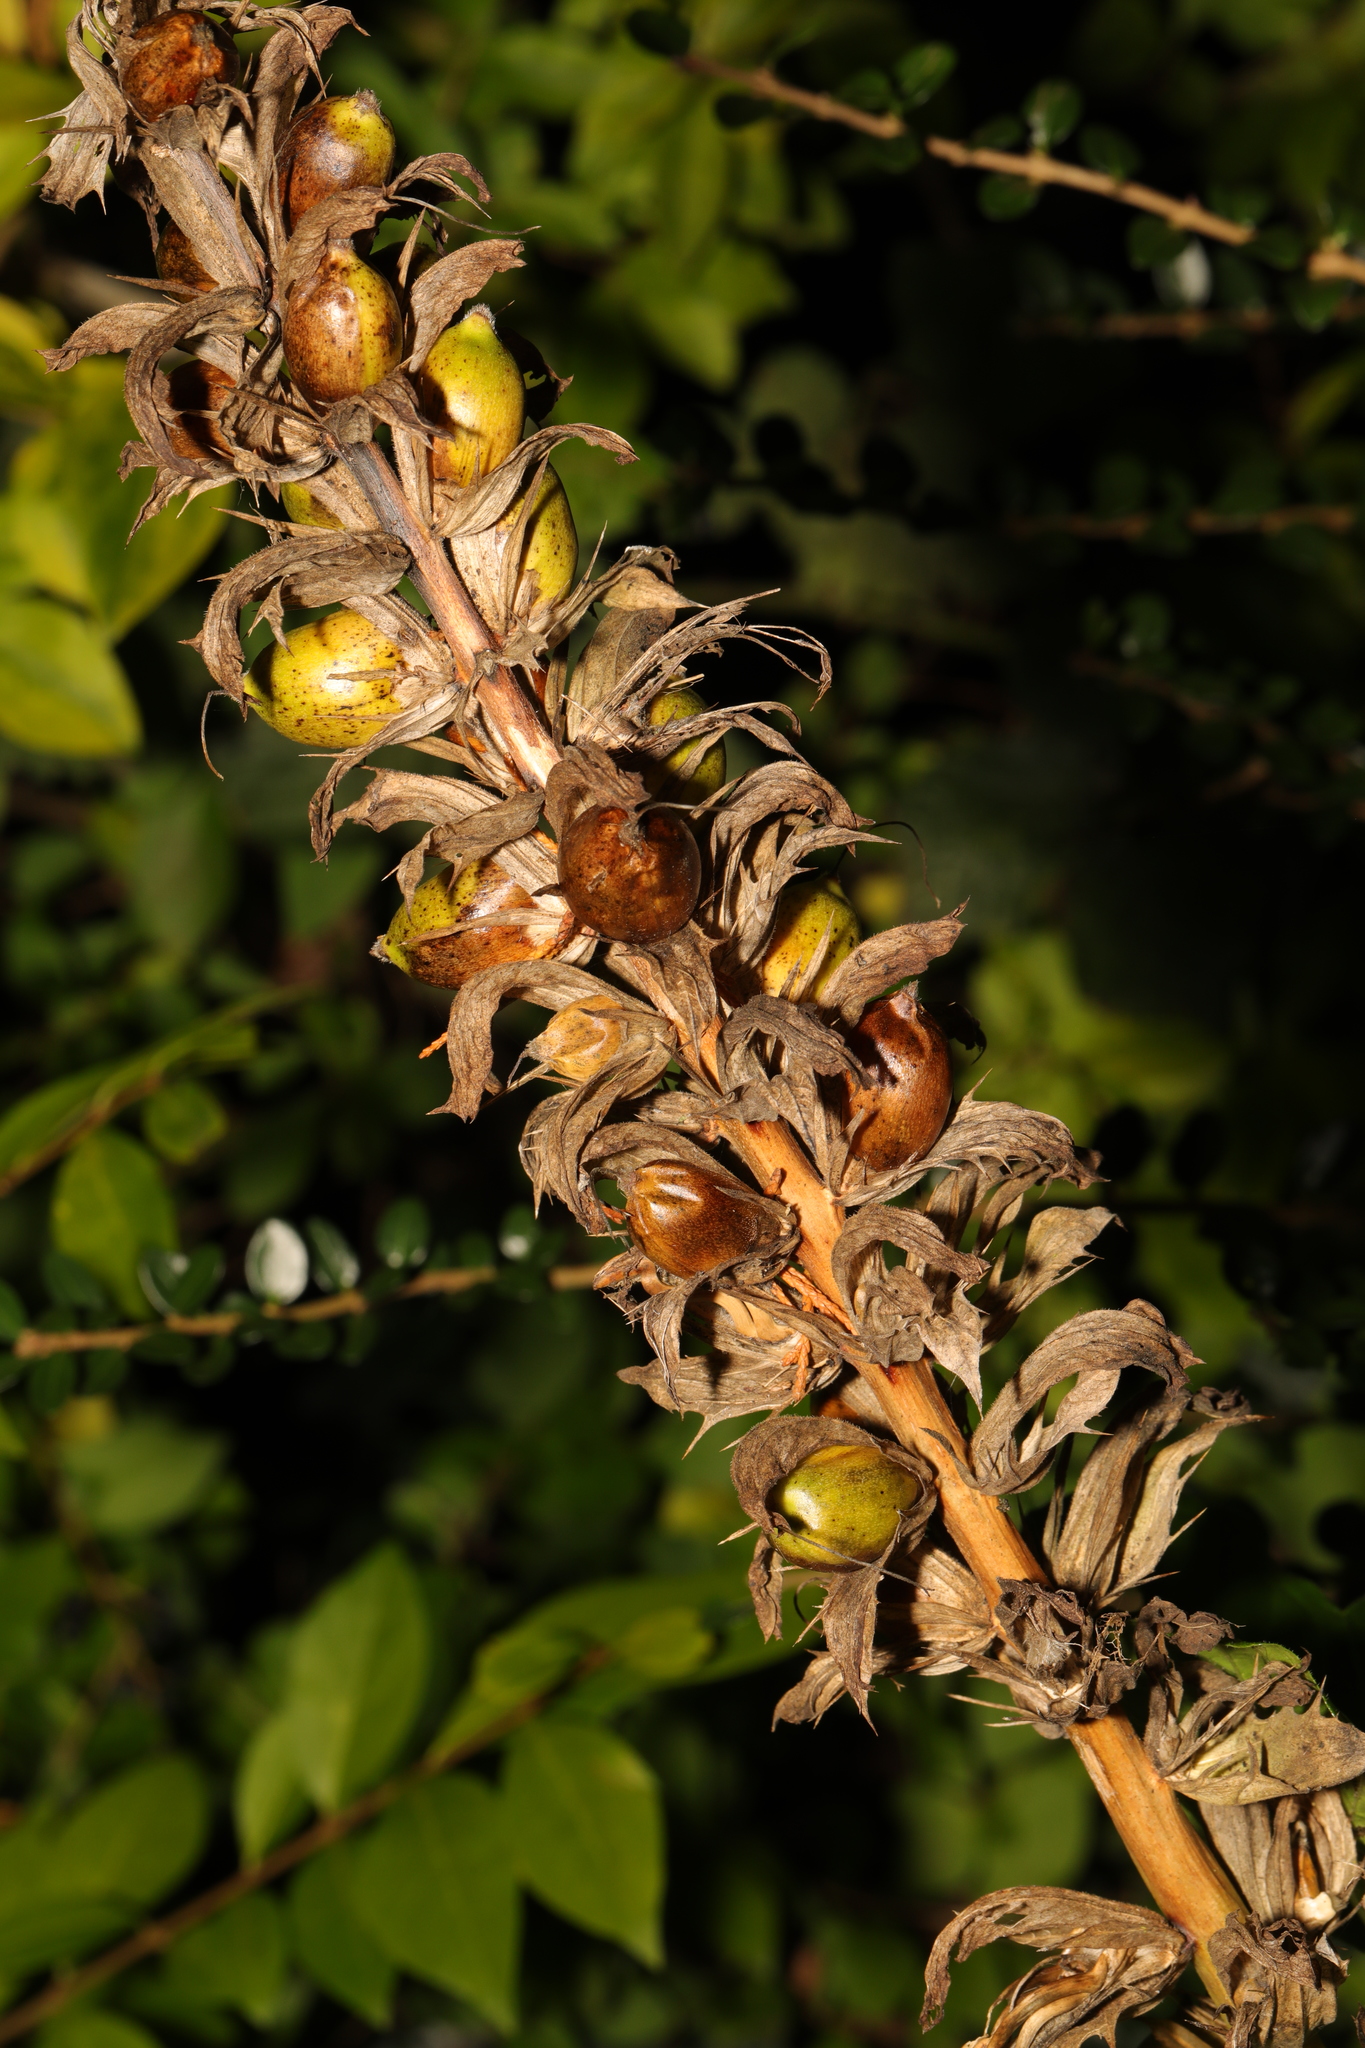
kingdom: Plantae
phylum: Tracheophyta
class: Magnoliopsida
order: Lamiales
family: Acanthaceae
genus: Acanthus
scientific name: Acanthus mollis
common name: Bear's-breech
